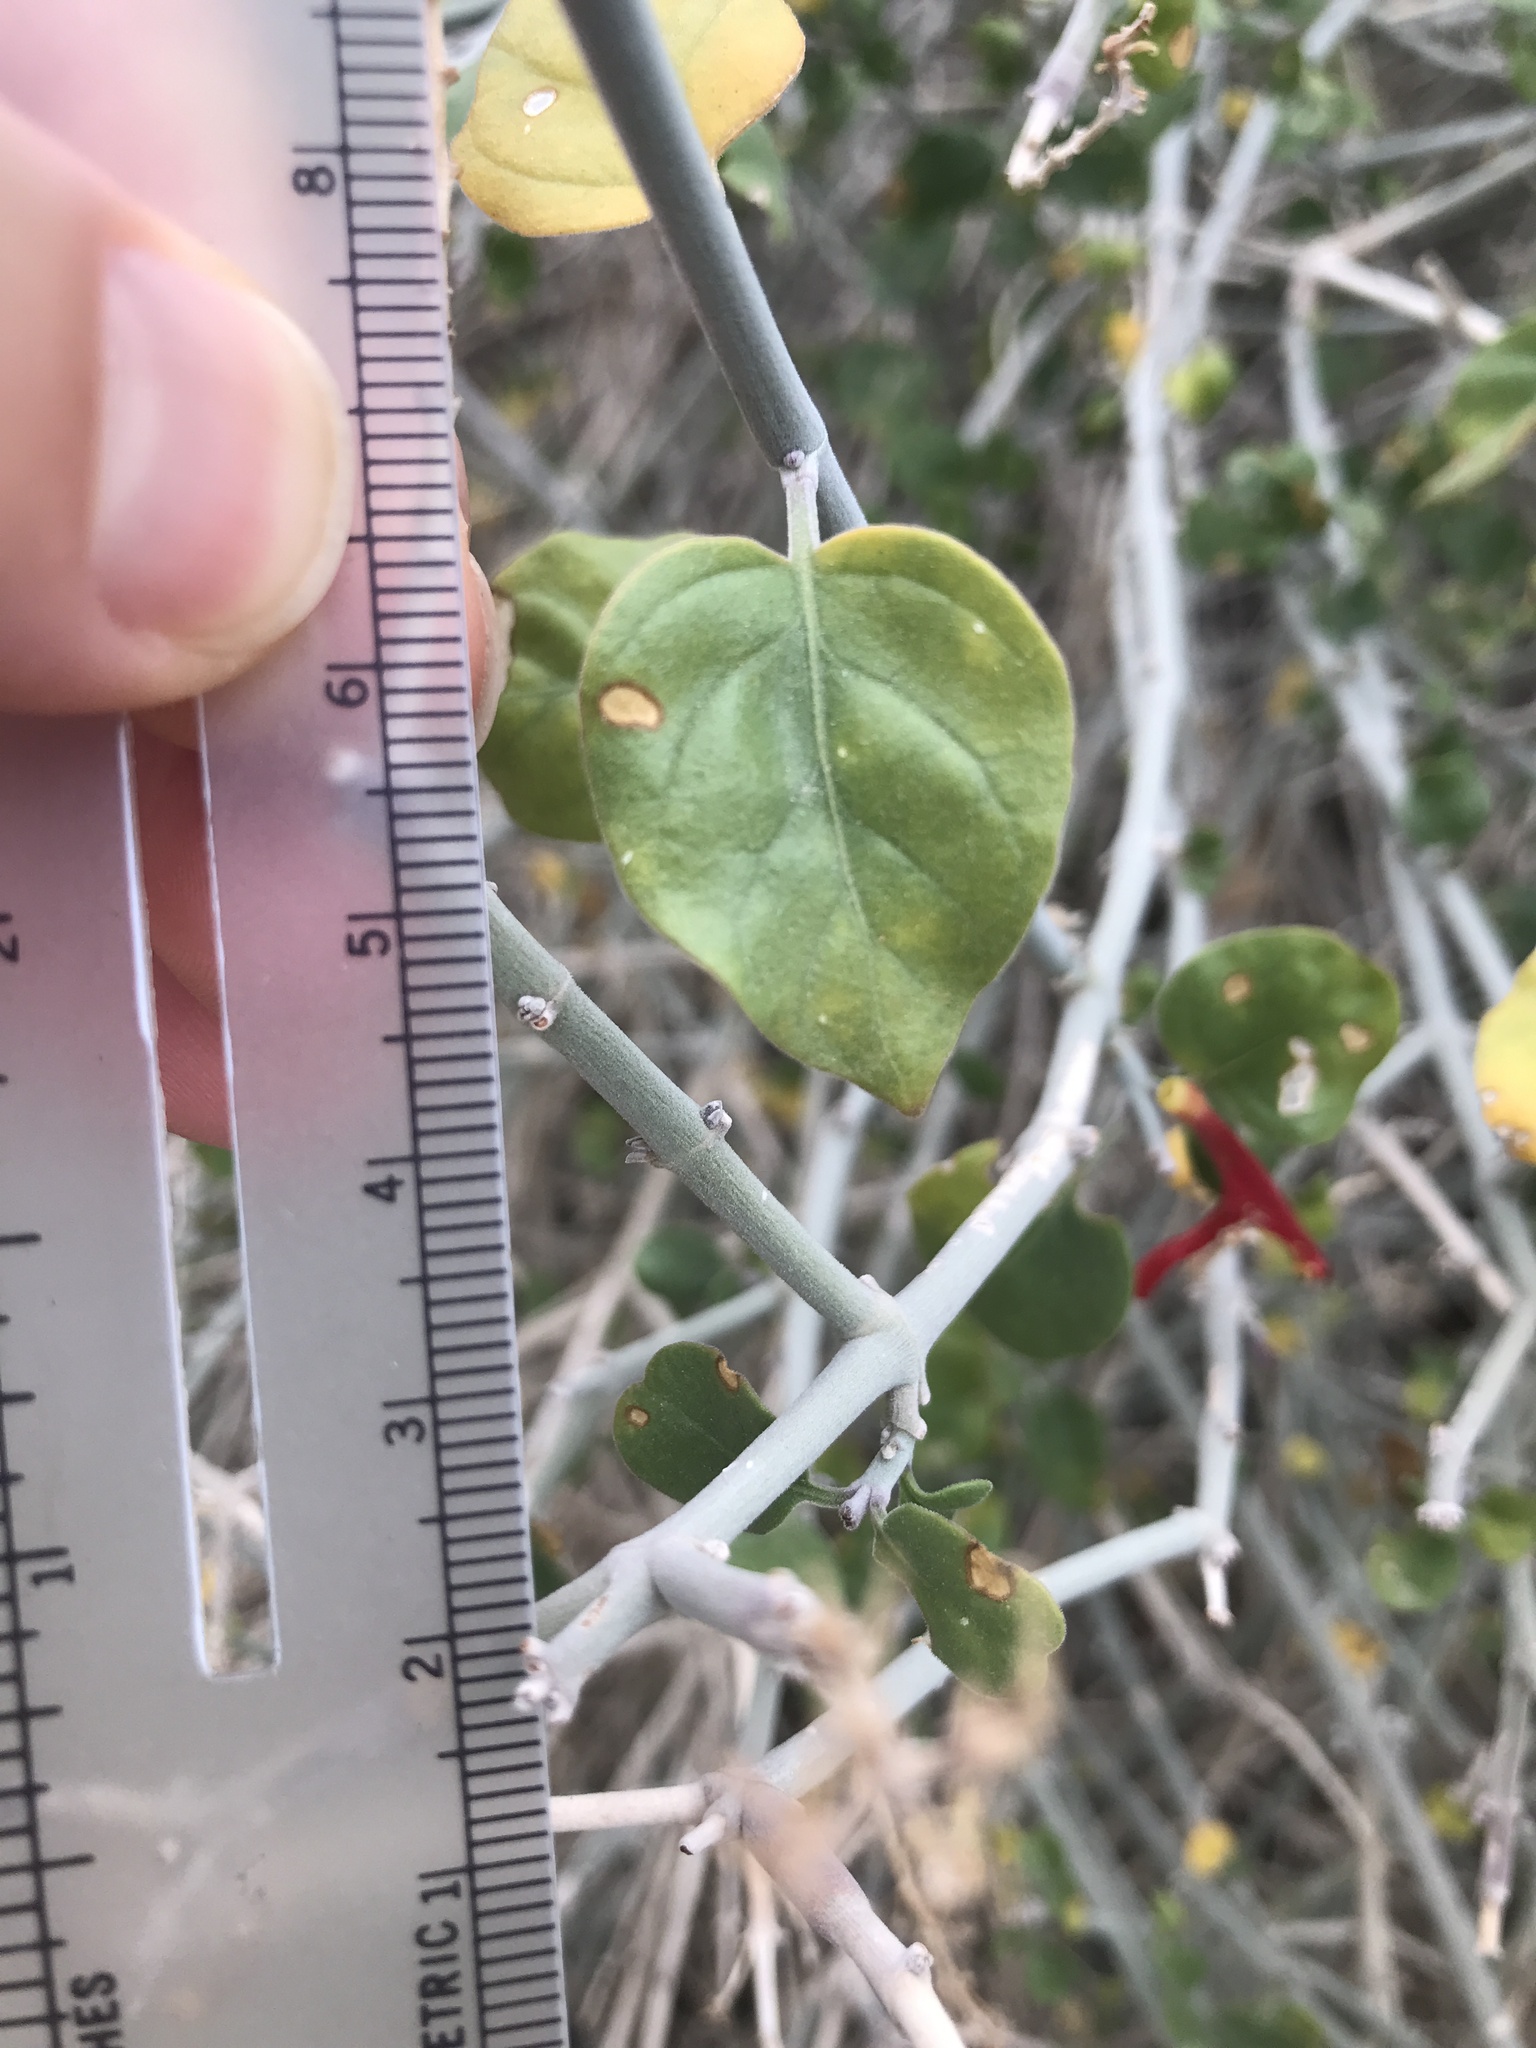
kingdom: Plantae
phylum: Tracheophyta
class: Magnoliopsida
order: Lamiales
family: Acanthaceae
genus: Justicia
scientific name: Justicia californica
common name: Chuparosa-honeysuckle
